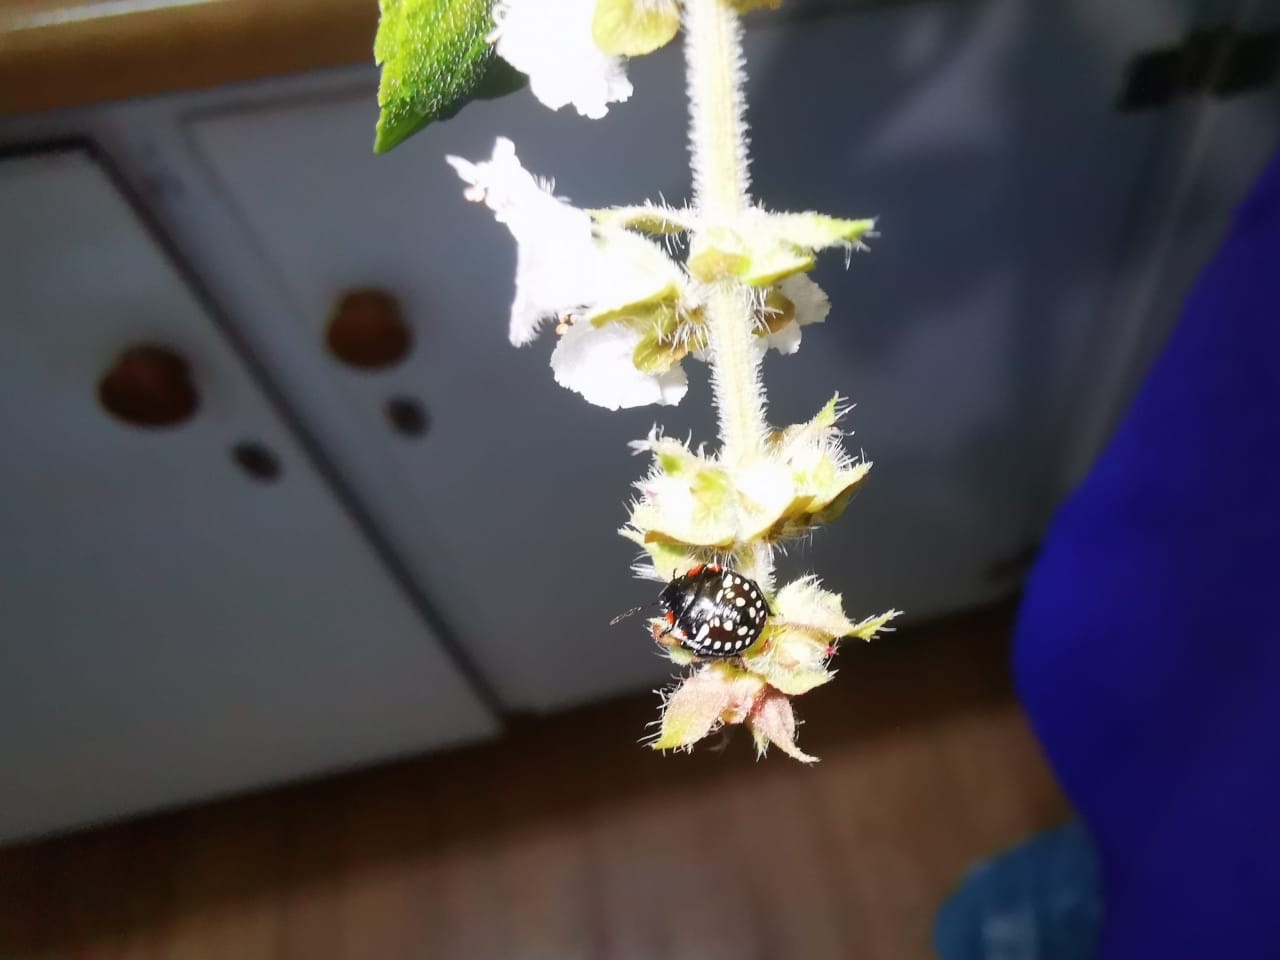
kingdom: Animalia
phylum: Arthropoda
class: Insecta
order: Hemiptera
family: Pentatomidae
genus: Nezara
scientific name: Nezara viridula
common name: Southern green stink bug
